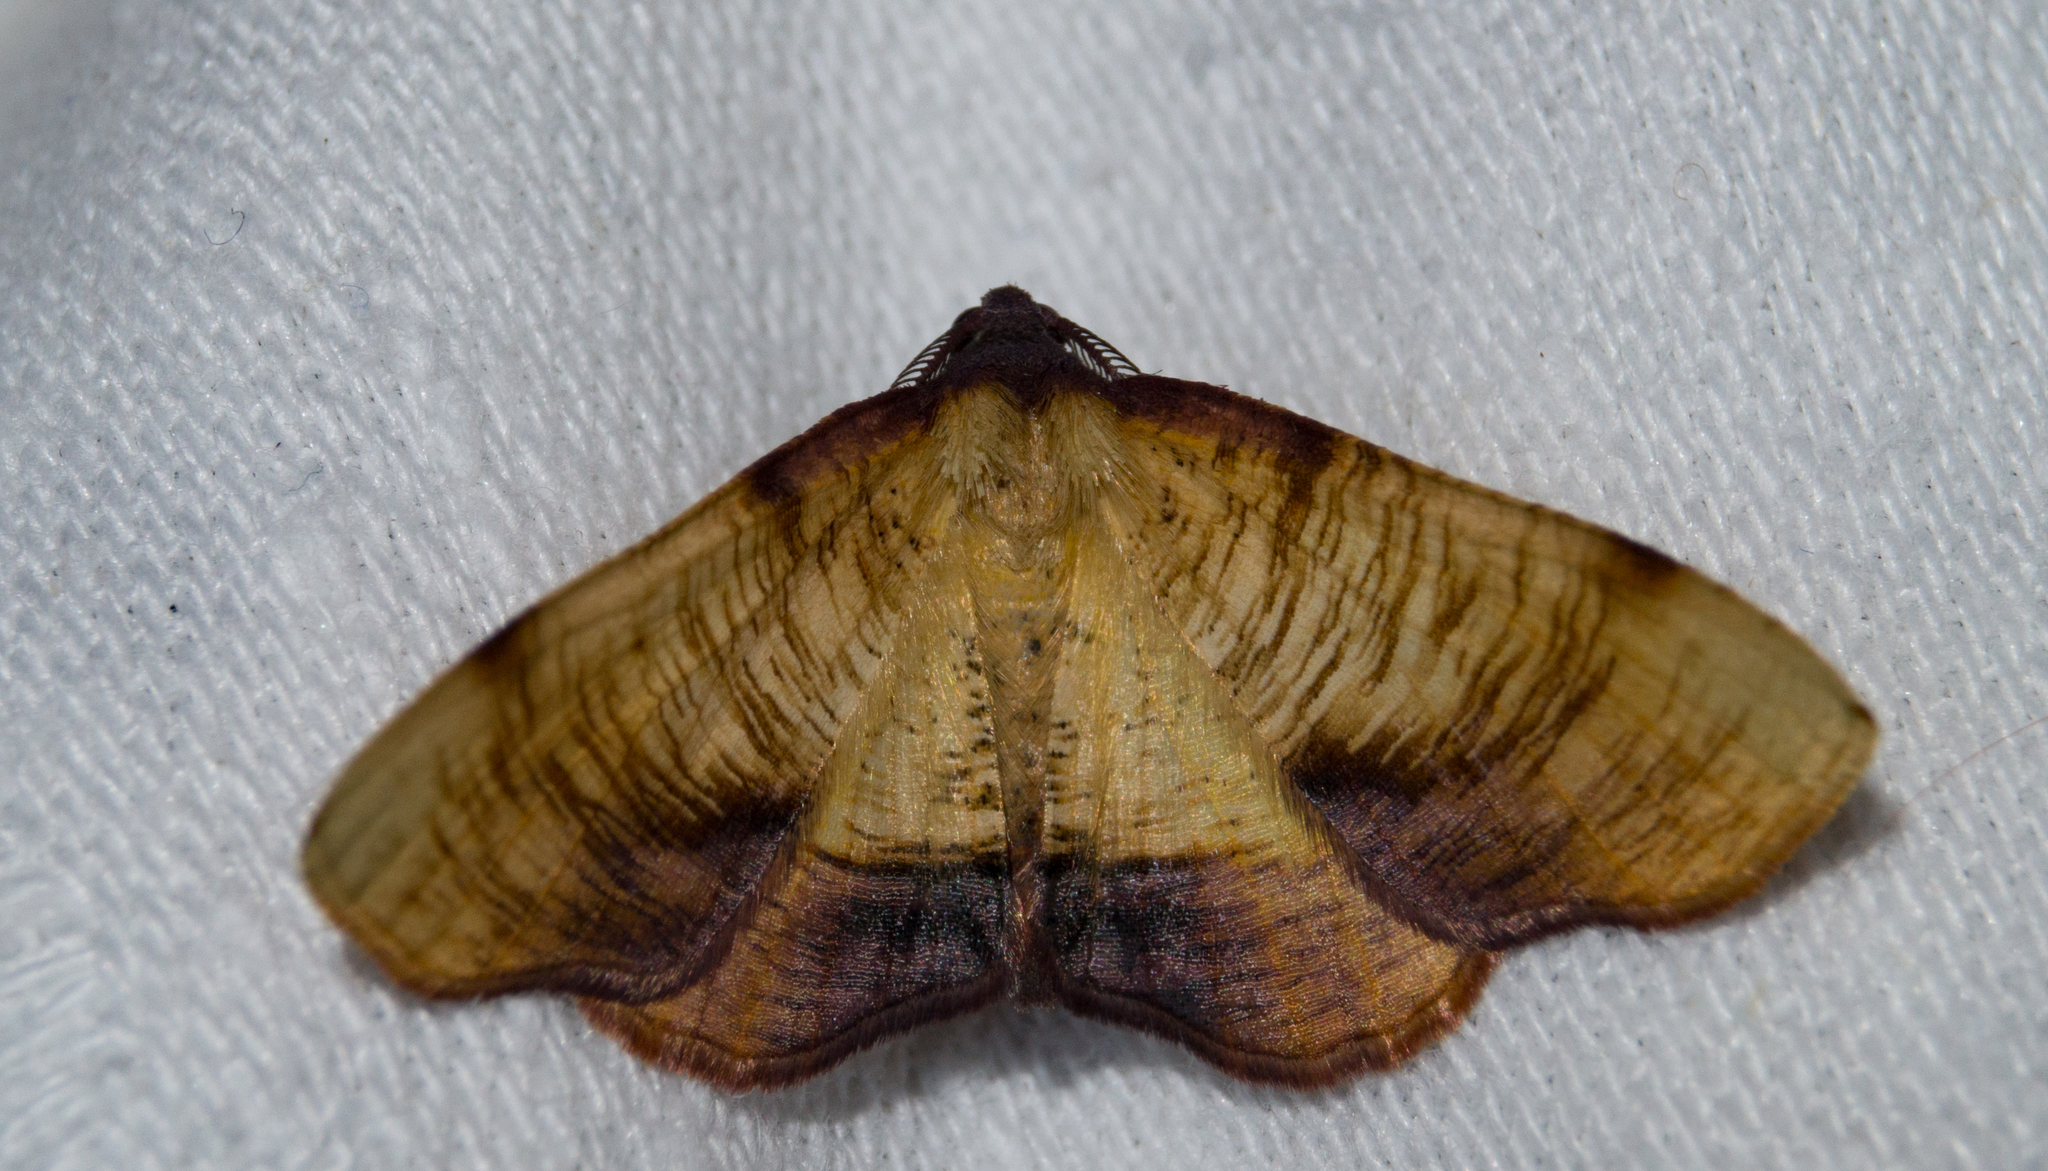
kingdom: Animalia
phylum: Arthropoda
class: Insecta
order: Lepidoptera
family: Geometridae
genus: Plagodis
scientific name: Plagodis dolabraria
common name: Scorched wing
